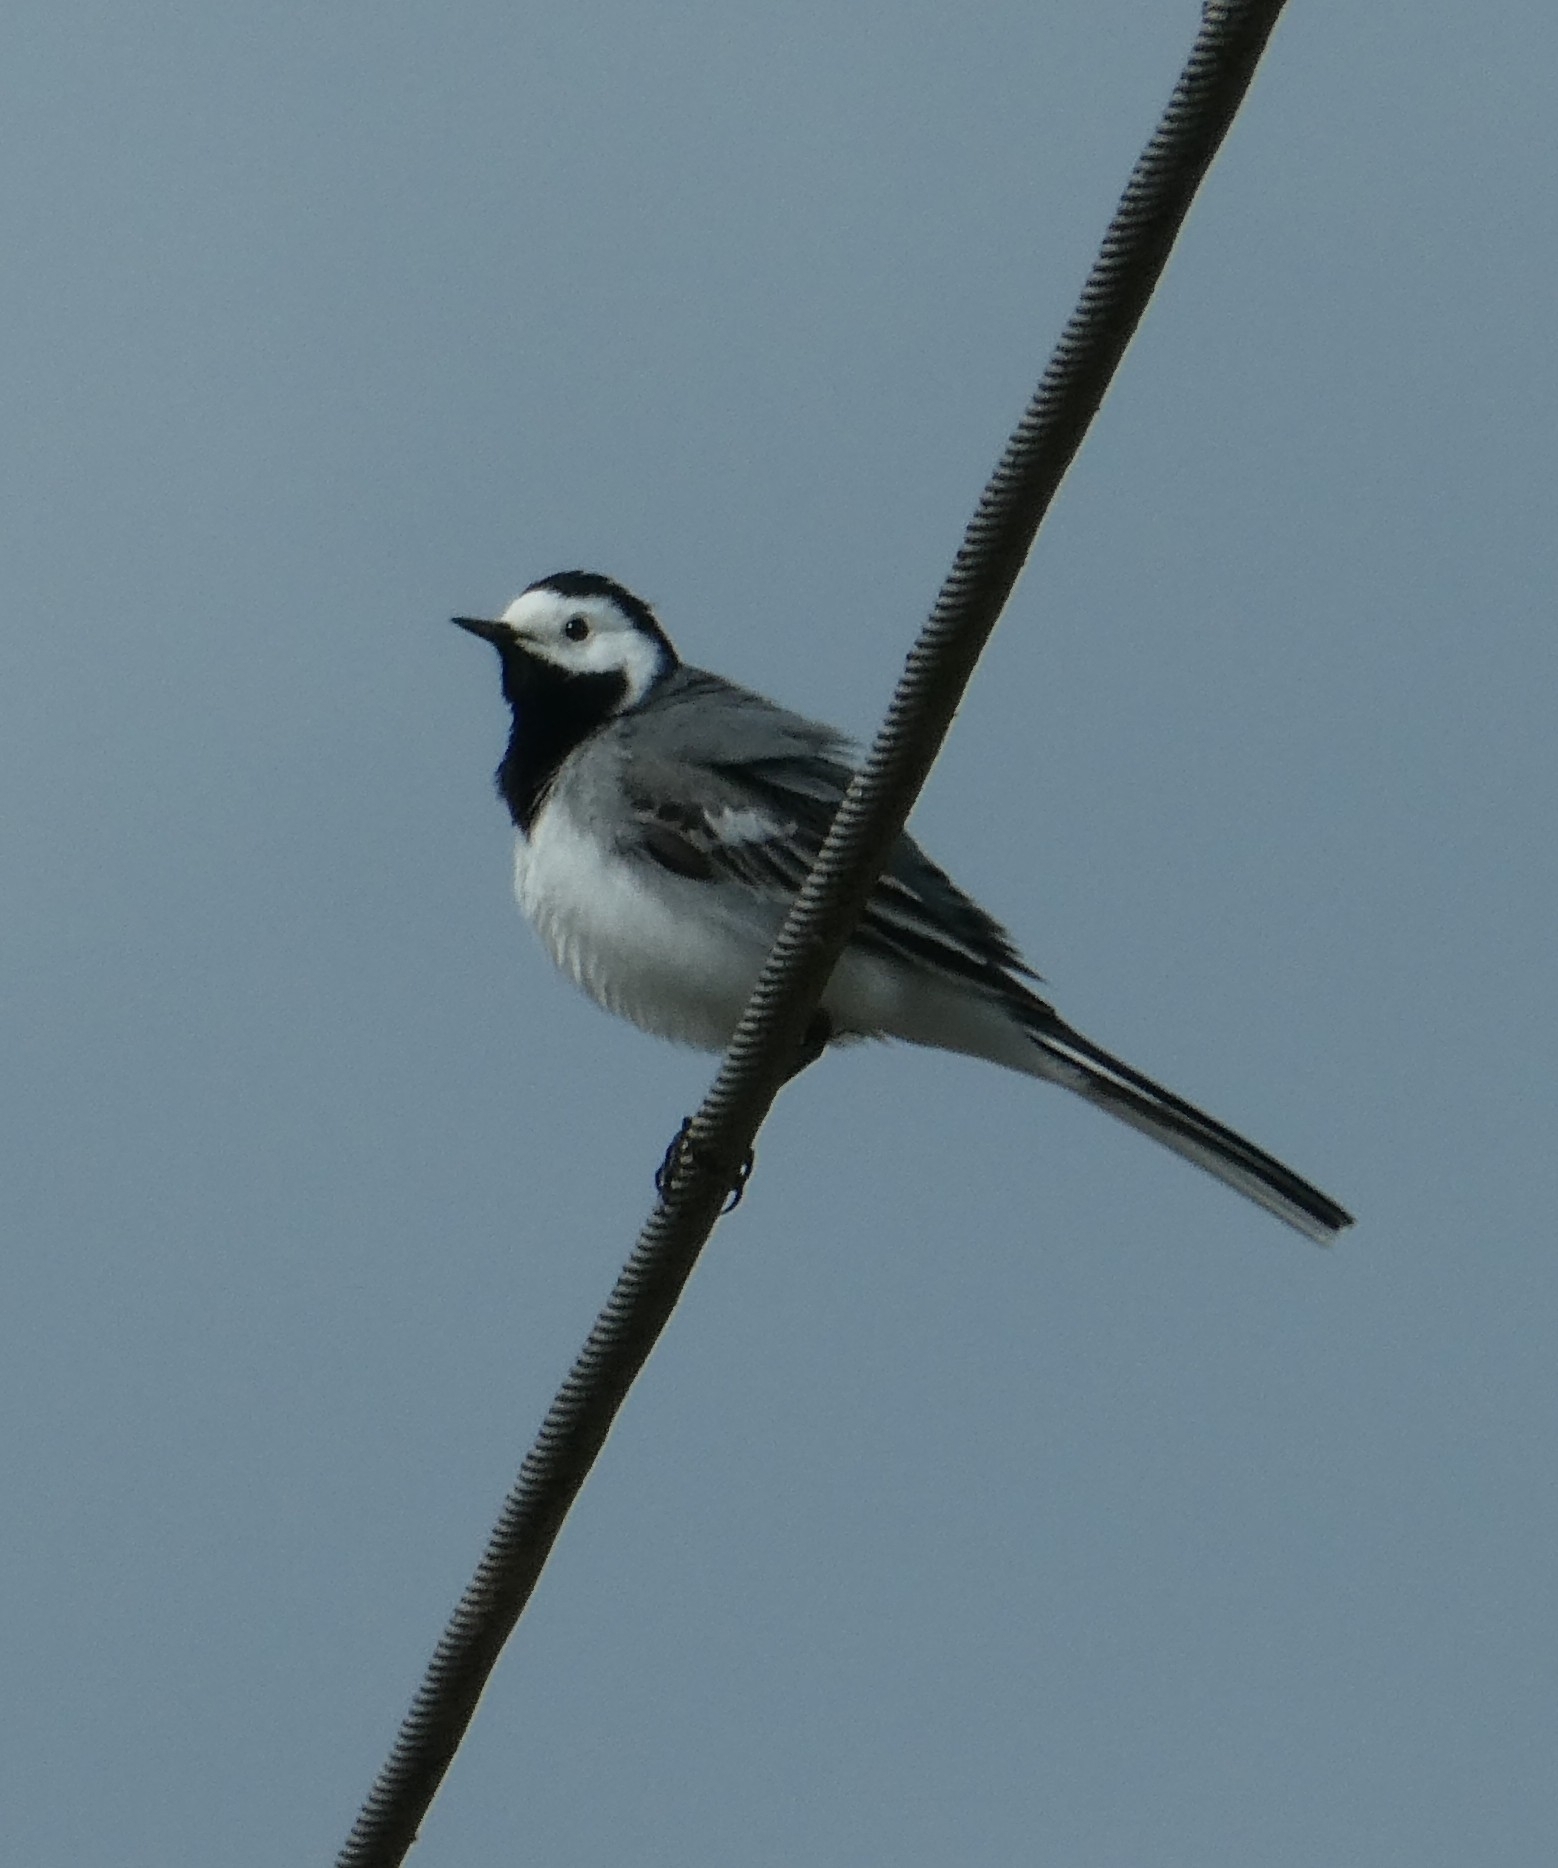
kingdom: Animalia
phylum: Chordata
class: Aves
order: Passeriformes
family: Motacillidae
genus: Motacilla
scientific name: Motacilla alba
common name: White wagtail
